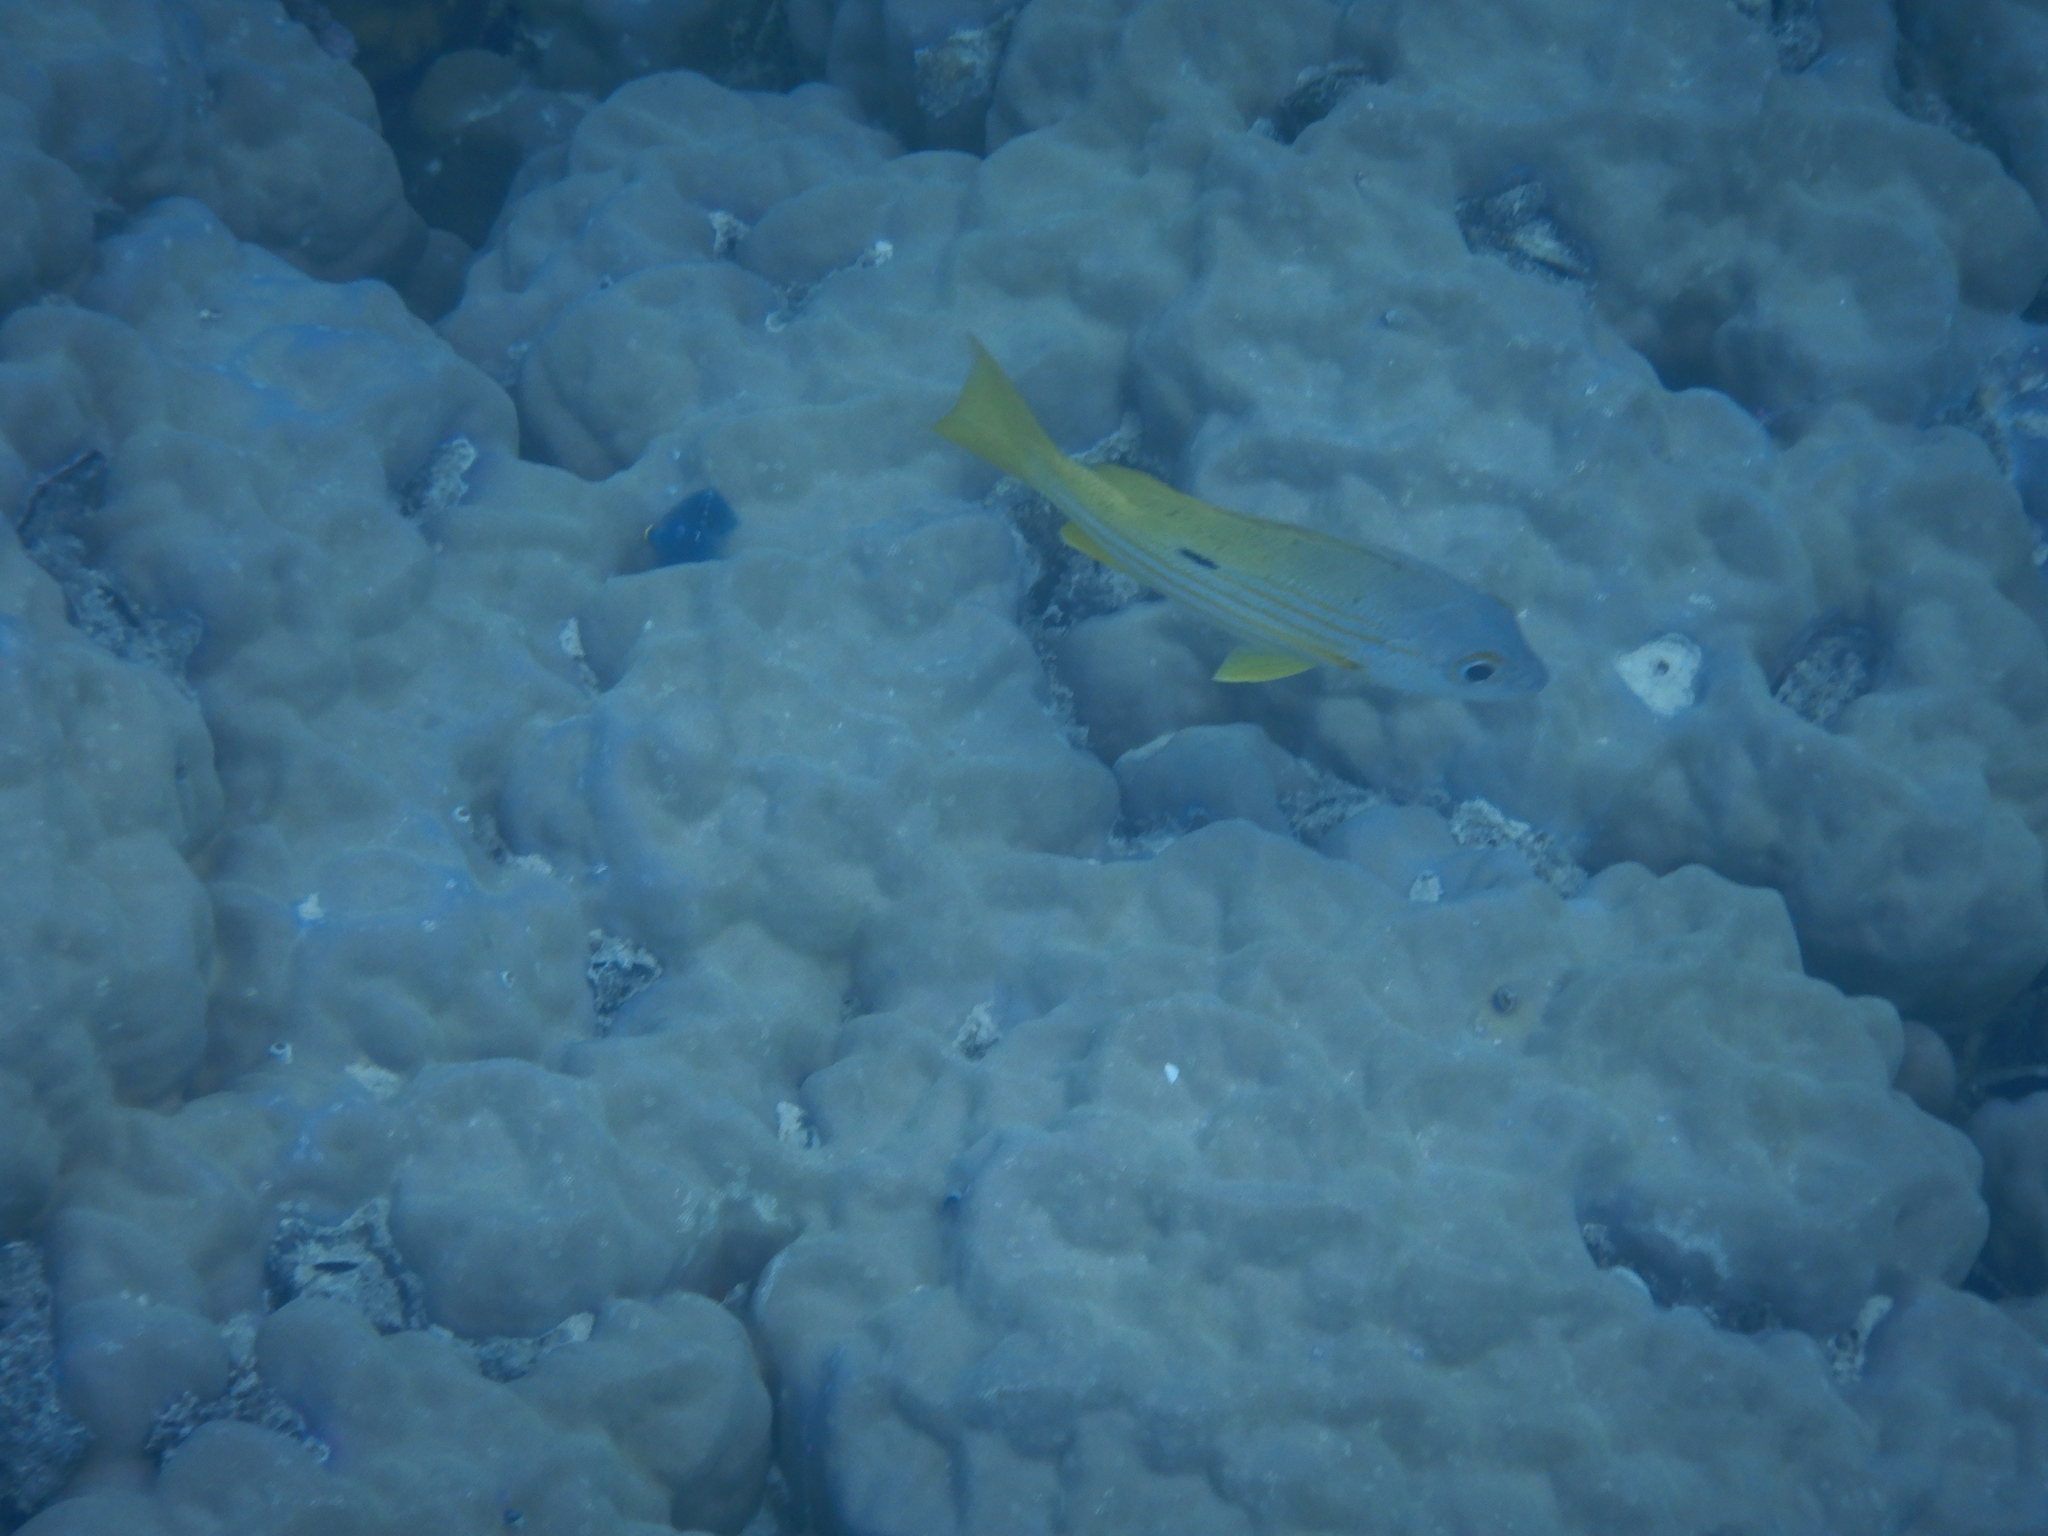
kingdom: Animalia
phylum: Chordata
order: Perciformes
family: Lutjanidae
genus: Lutjanus
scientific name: Lutjanus fulviflamma
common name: Blackspot snapper
